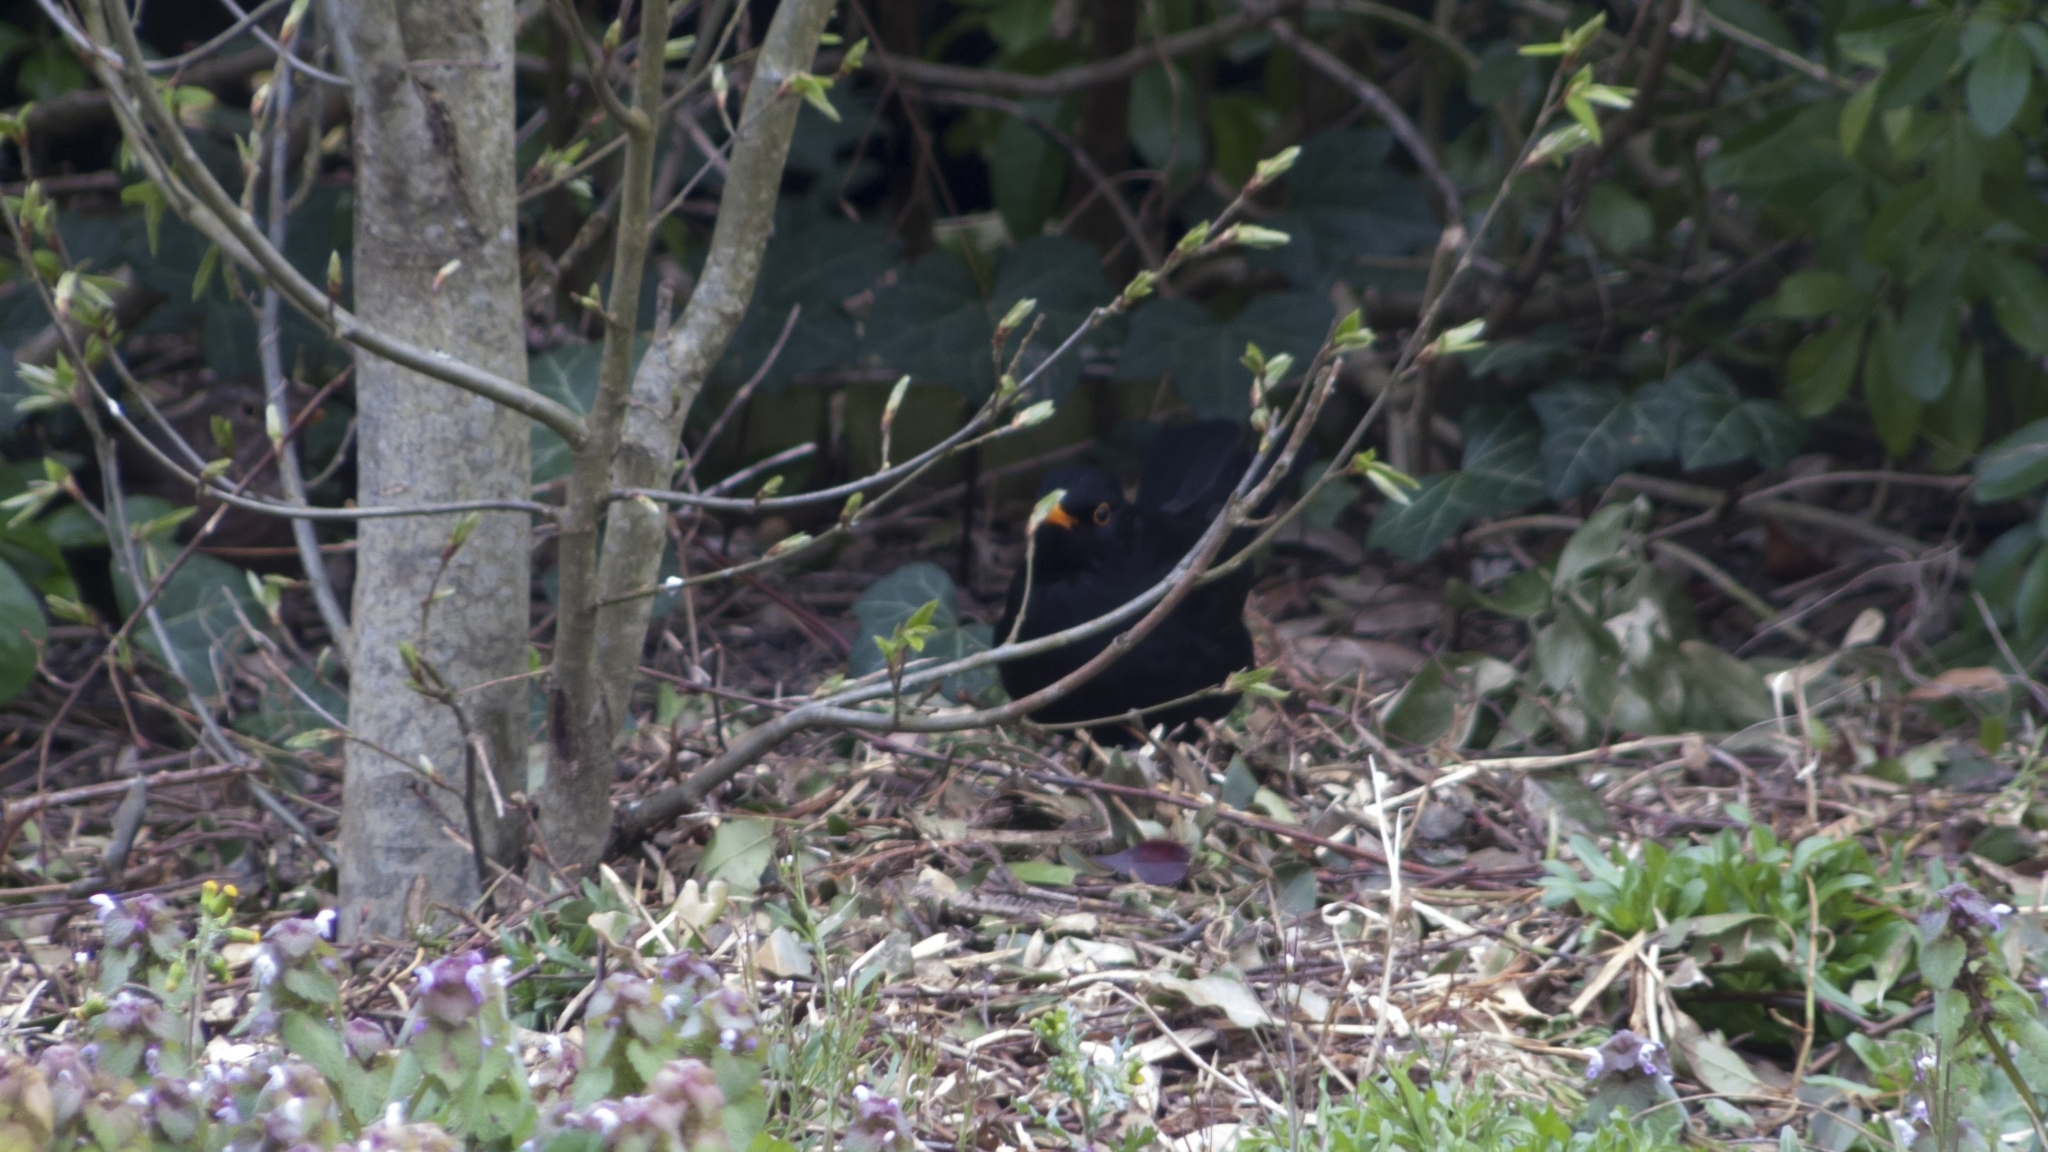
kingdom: Animalia
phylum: Chordata
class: Aves
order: Passeriformes
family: Turdidae
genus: Turdus
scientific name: Turdus merula
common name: Common blackbird
